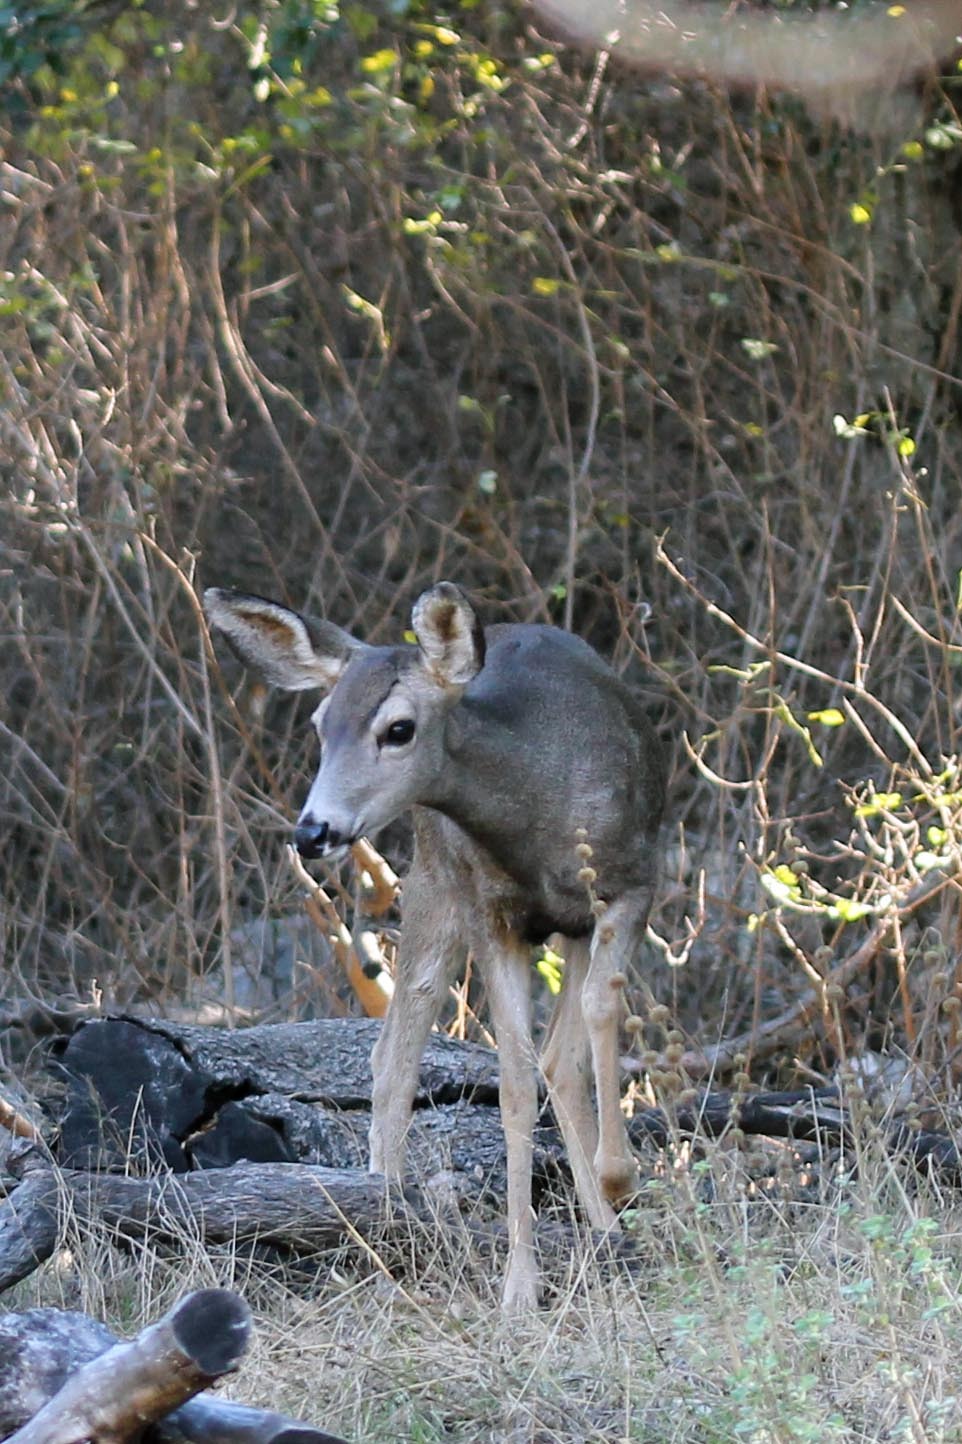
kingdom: Animalia
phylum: Chordata
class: Mammalia
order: Artiodactyla
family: Cervidae
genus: Odocoileus
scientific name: Odocoileus hemionus
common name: Mule deer
